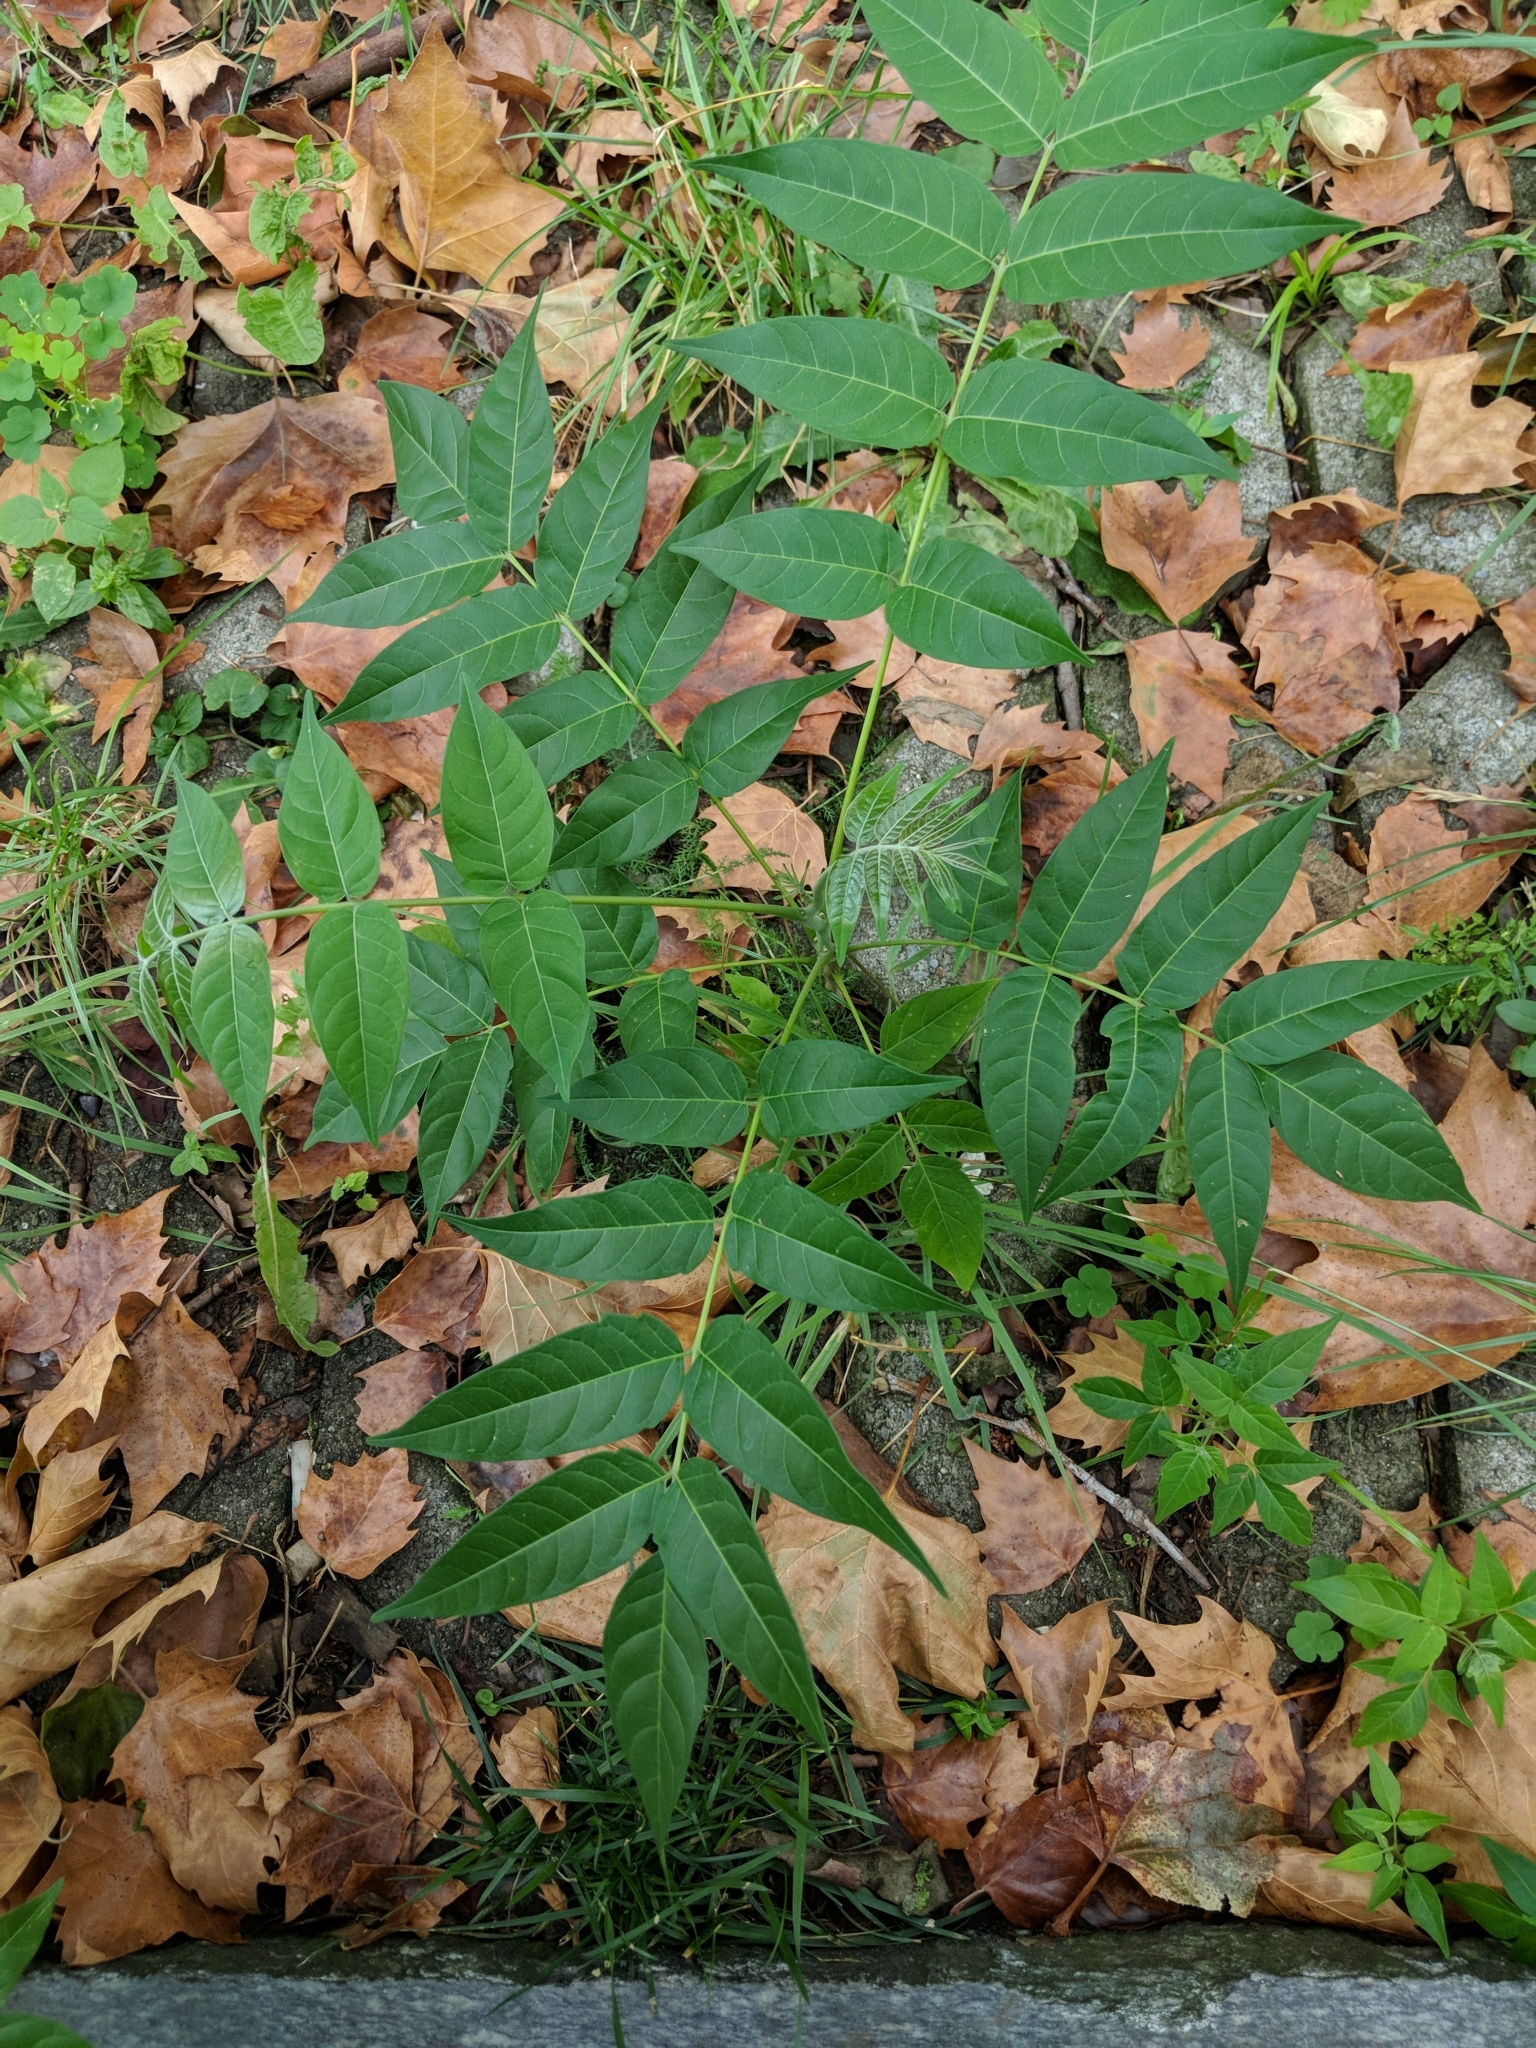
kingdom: Plantae
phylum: Tracheophyta
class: Magnoliopsida
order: Sapindales
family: Simaroubaceae
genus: Ailanthus
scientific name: Ailanthus altissima
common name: Tree-of-heaven
